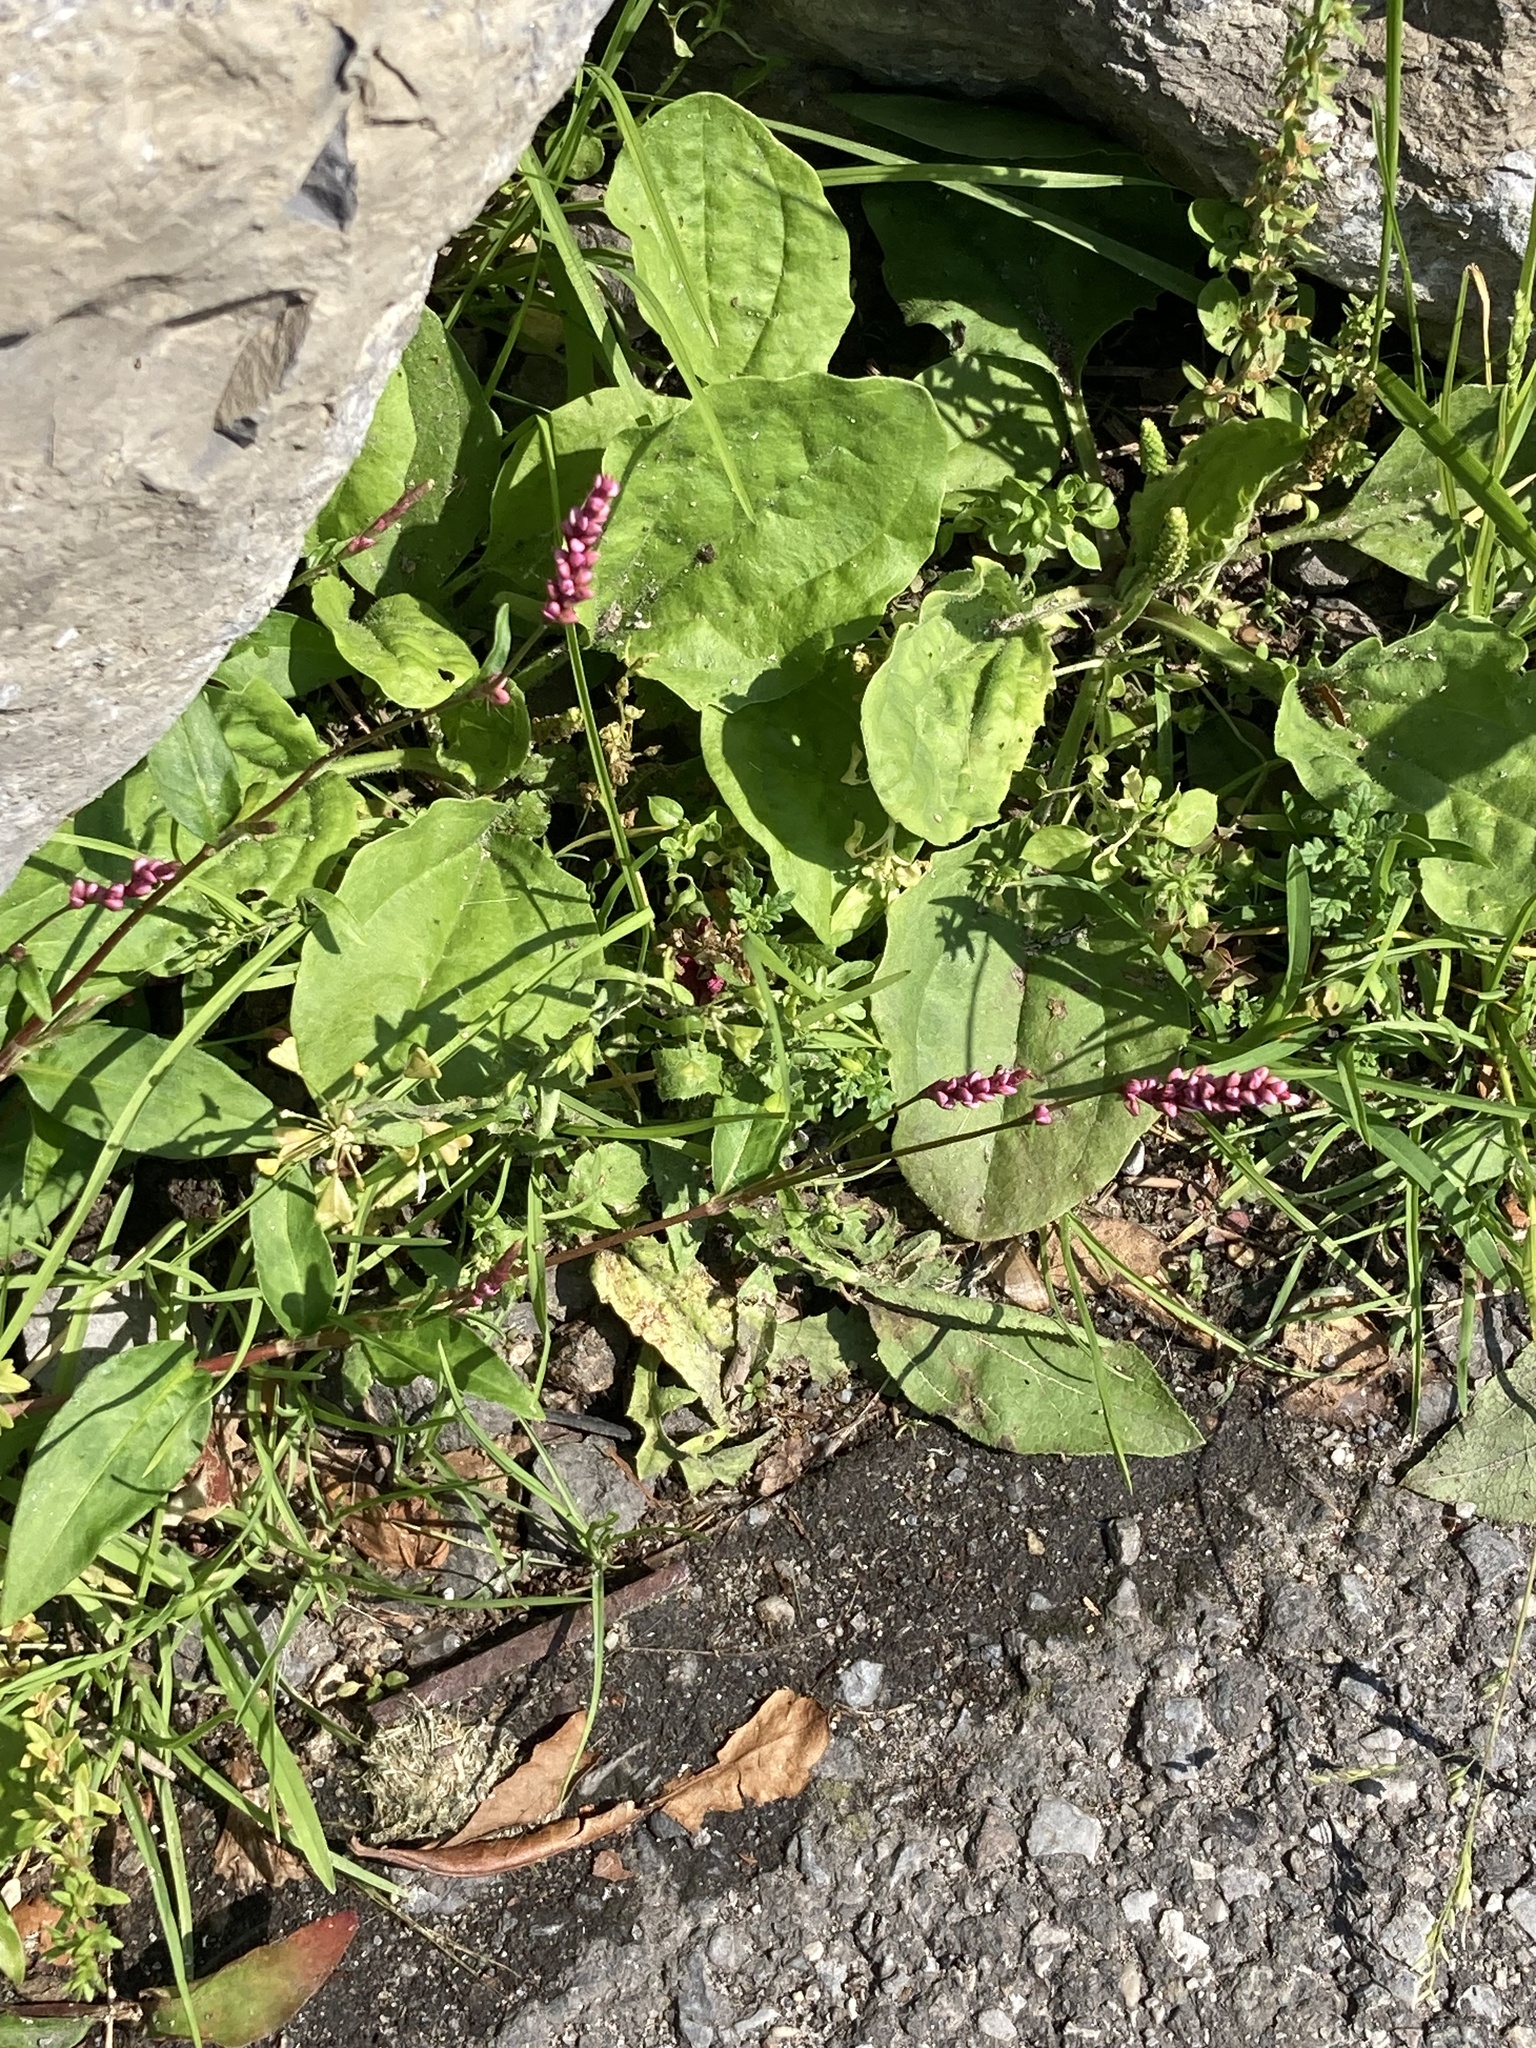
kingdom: Plantae
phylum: Tracheophyta
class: Magnoliopsida
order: Caryophyllales
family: Polygonaceae
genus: Persicaria
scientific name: Persicaria longiseta
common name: Bristly lady's-thumb
